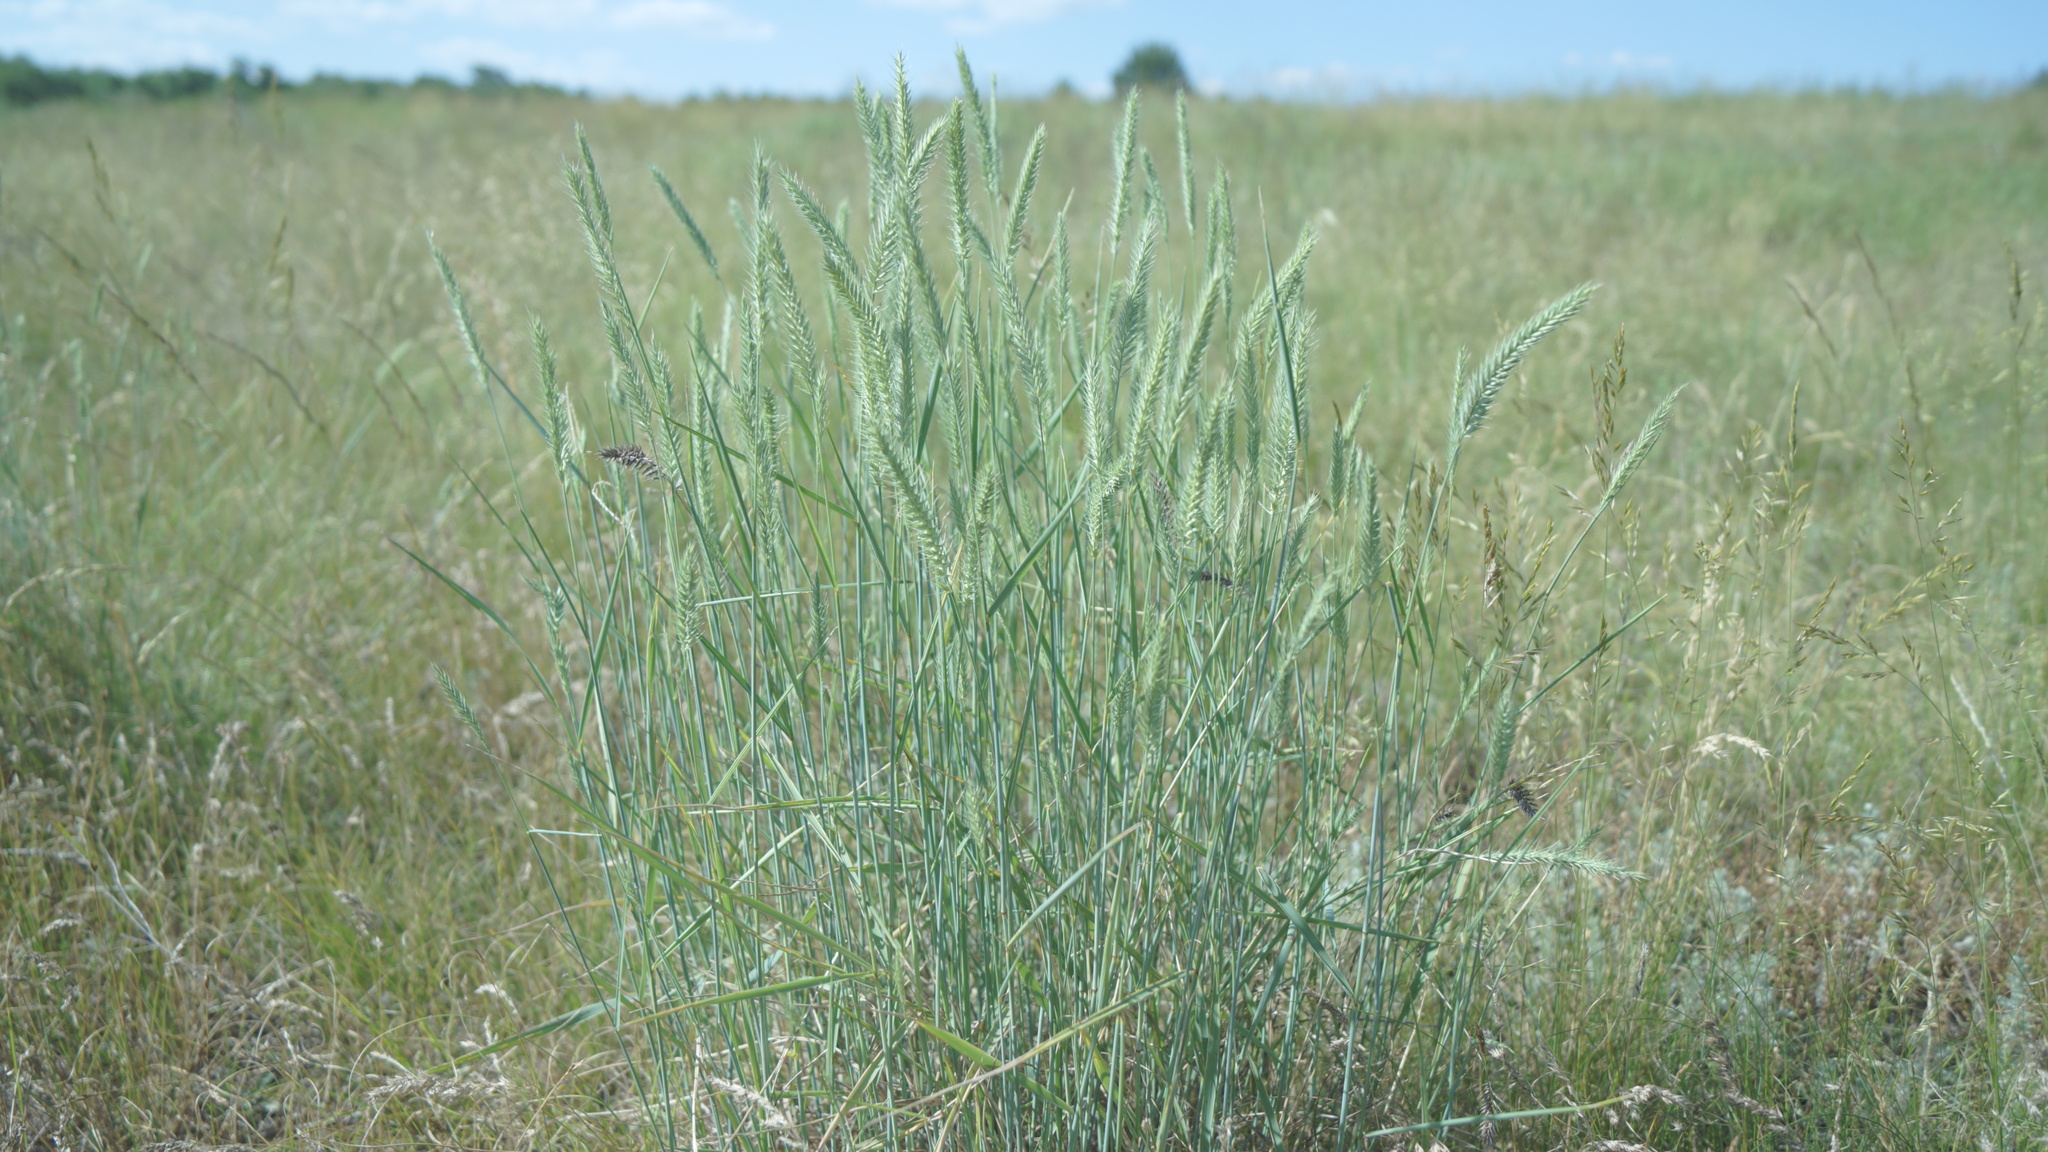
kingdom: Plantae
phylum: Tracheophyta
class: Liliopsida
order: Poales
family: Poaceae
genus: Agropyron
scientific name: Agropyron cristatum
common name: Crested wheatgrass
